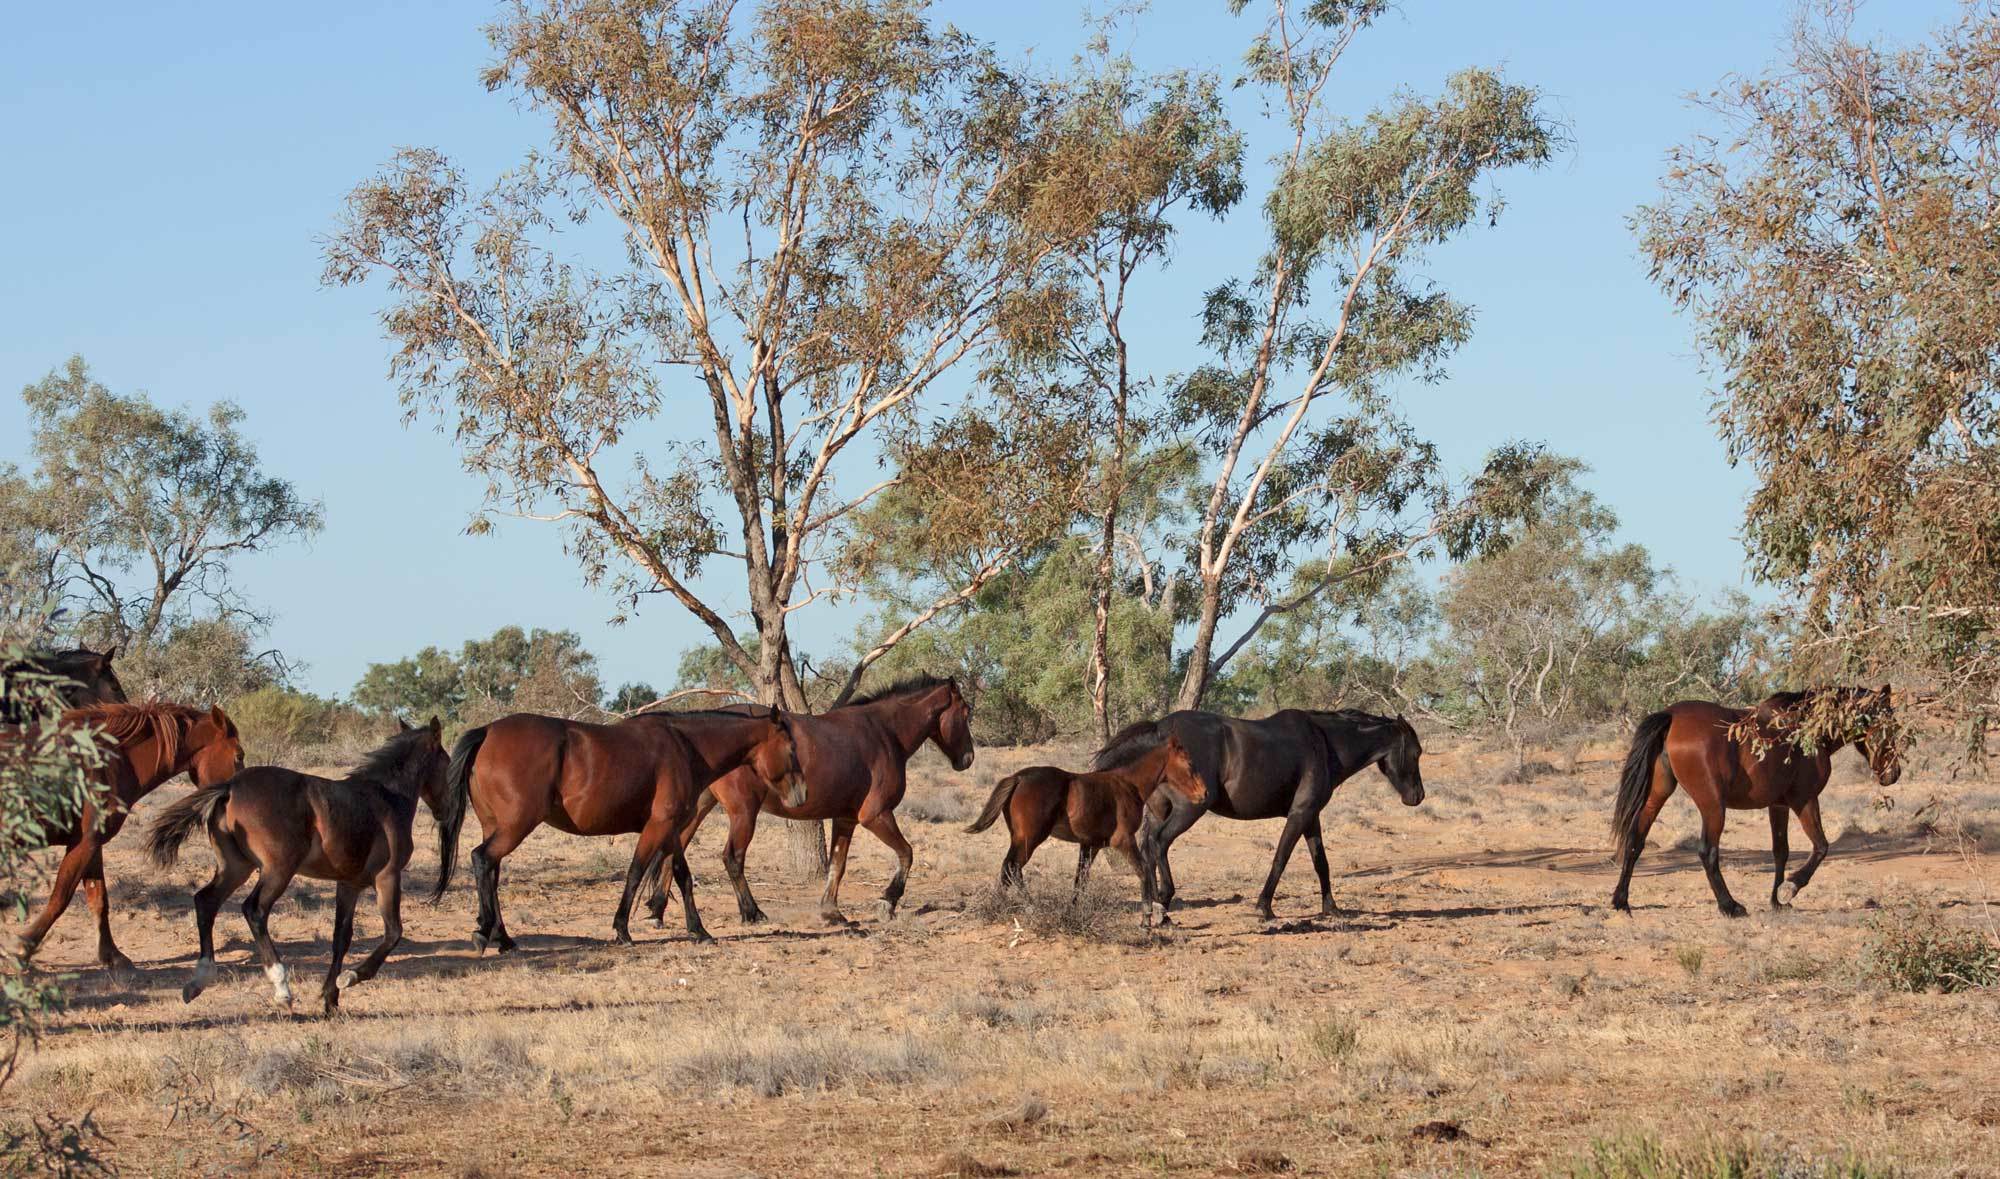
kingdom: Animalia
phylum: Chordata
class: Mammalia
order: Perissodactyla
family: Equidae
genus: Equus
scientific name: Equus caballus
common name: Horse
